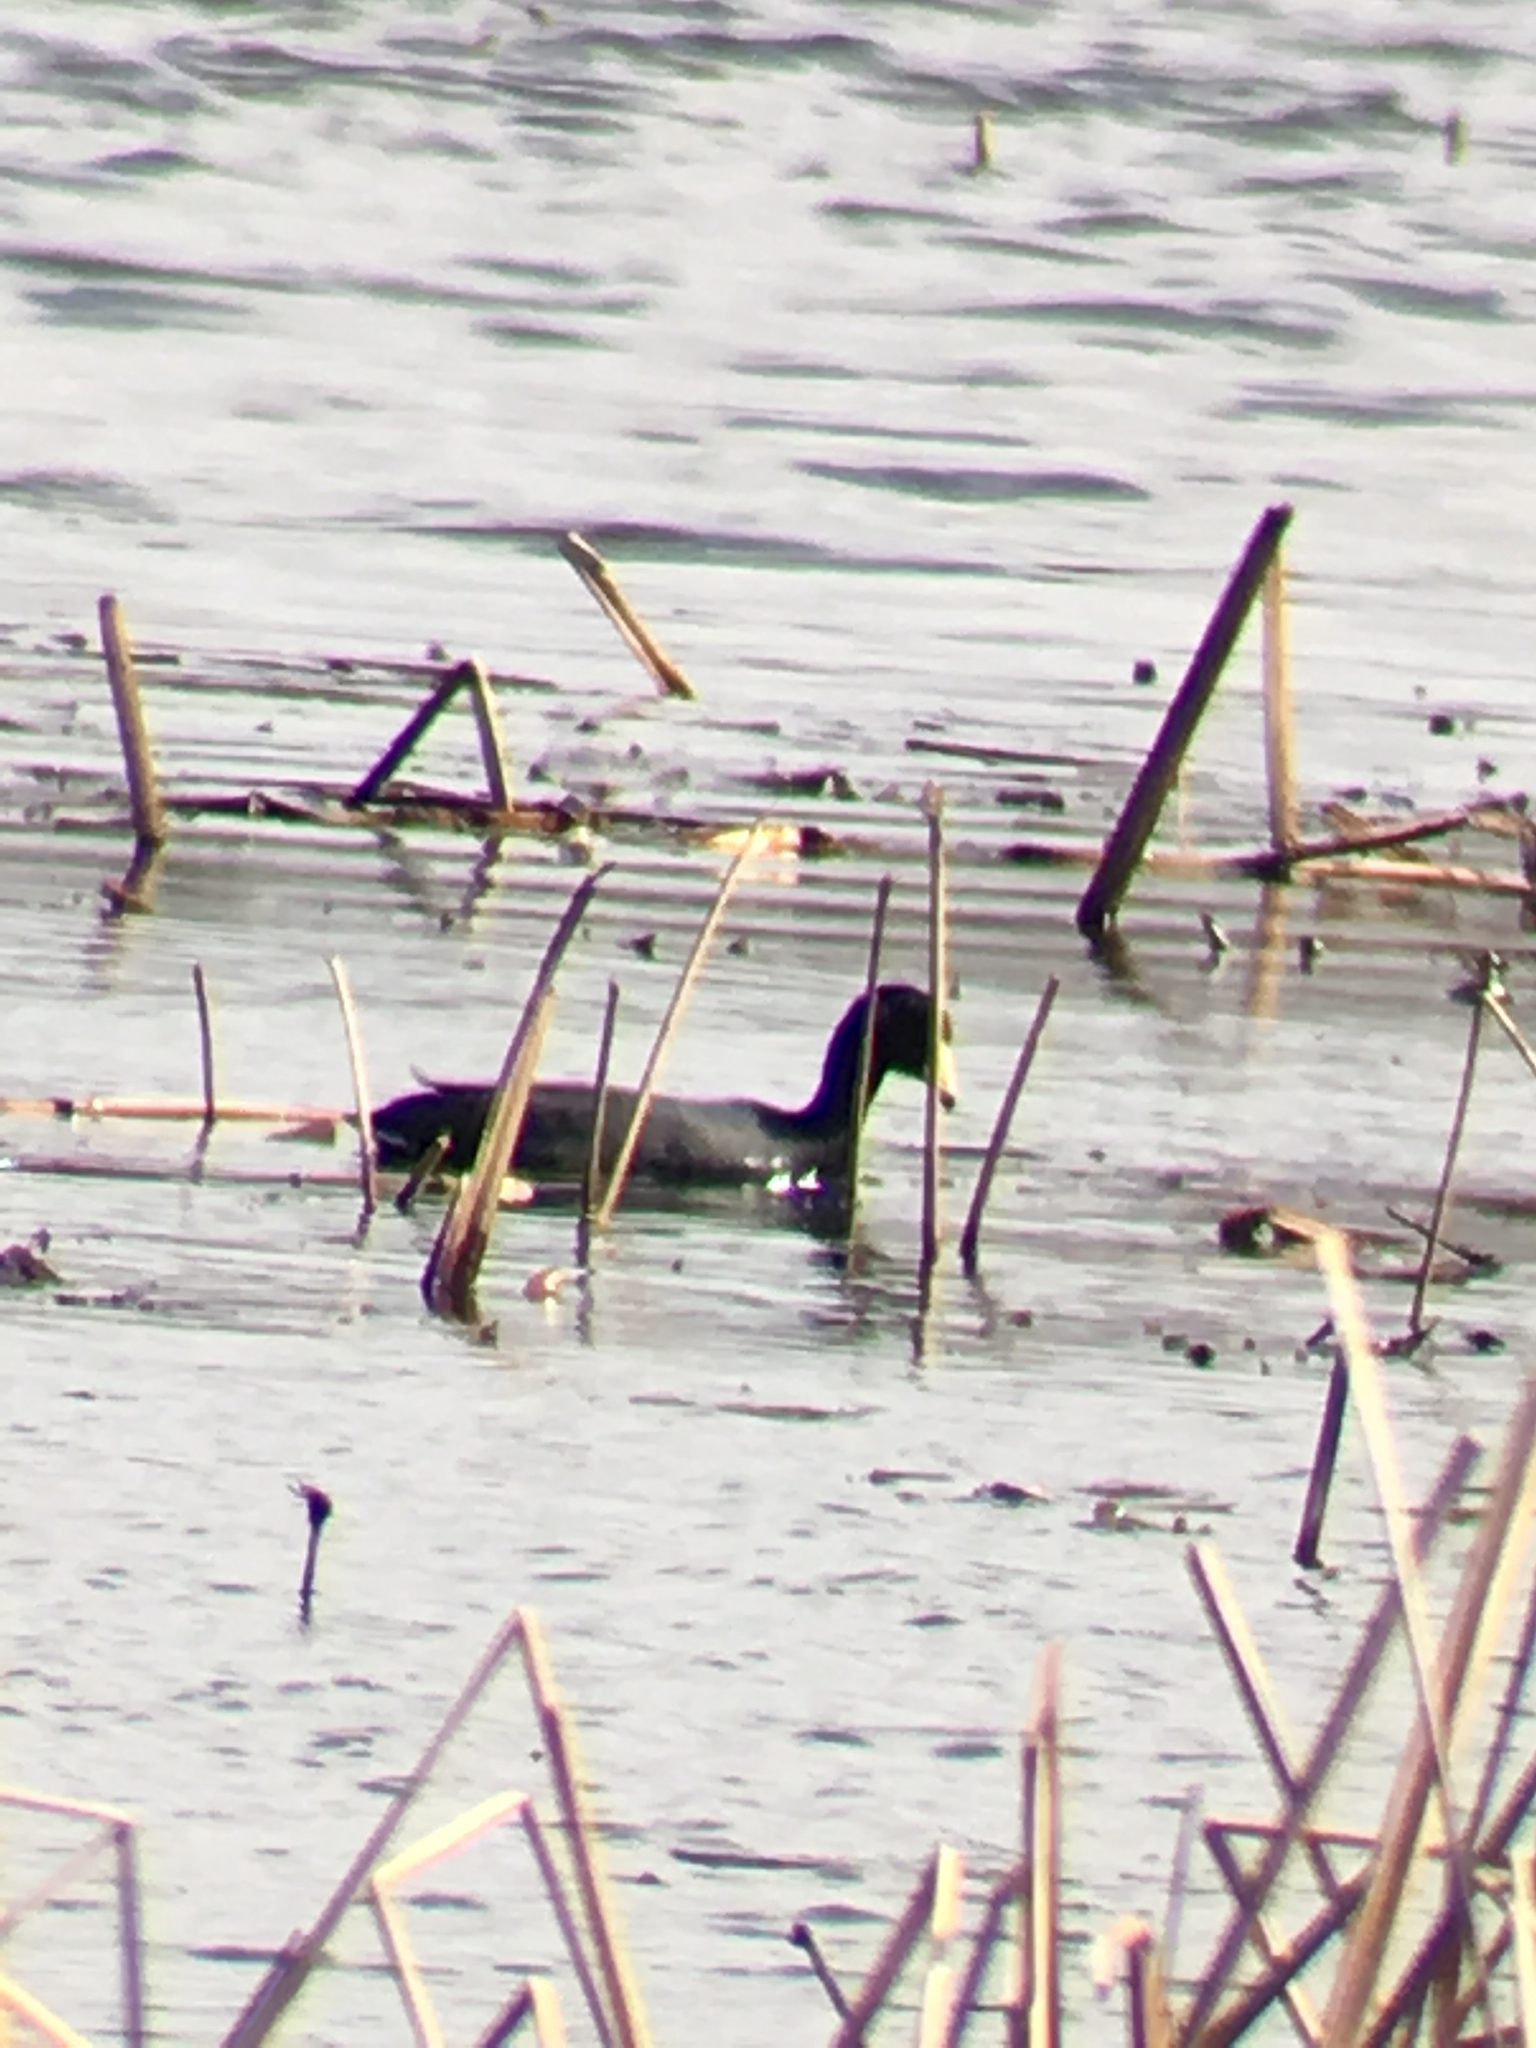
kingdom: Animalia
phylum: Chordata
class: Aves
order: Gruiformes
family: Rallidae
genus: Fulica
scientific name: Fulica americana
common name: American coot
